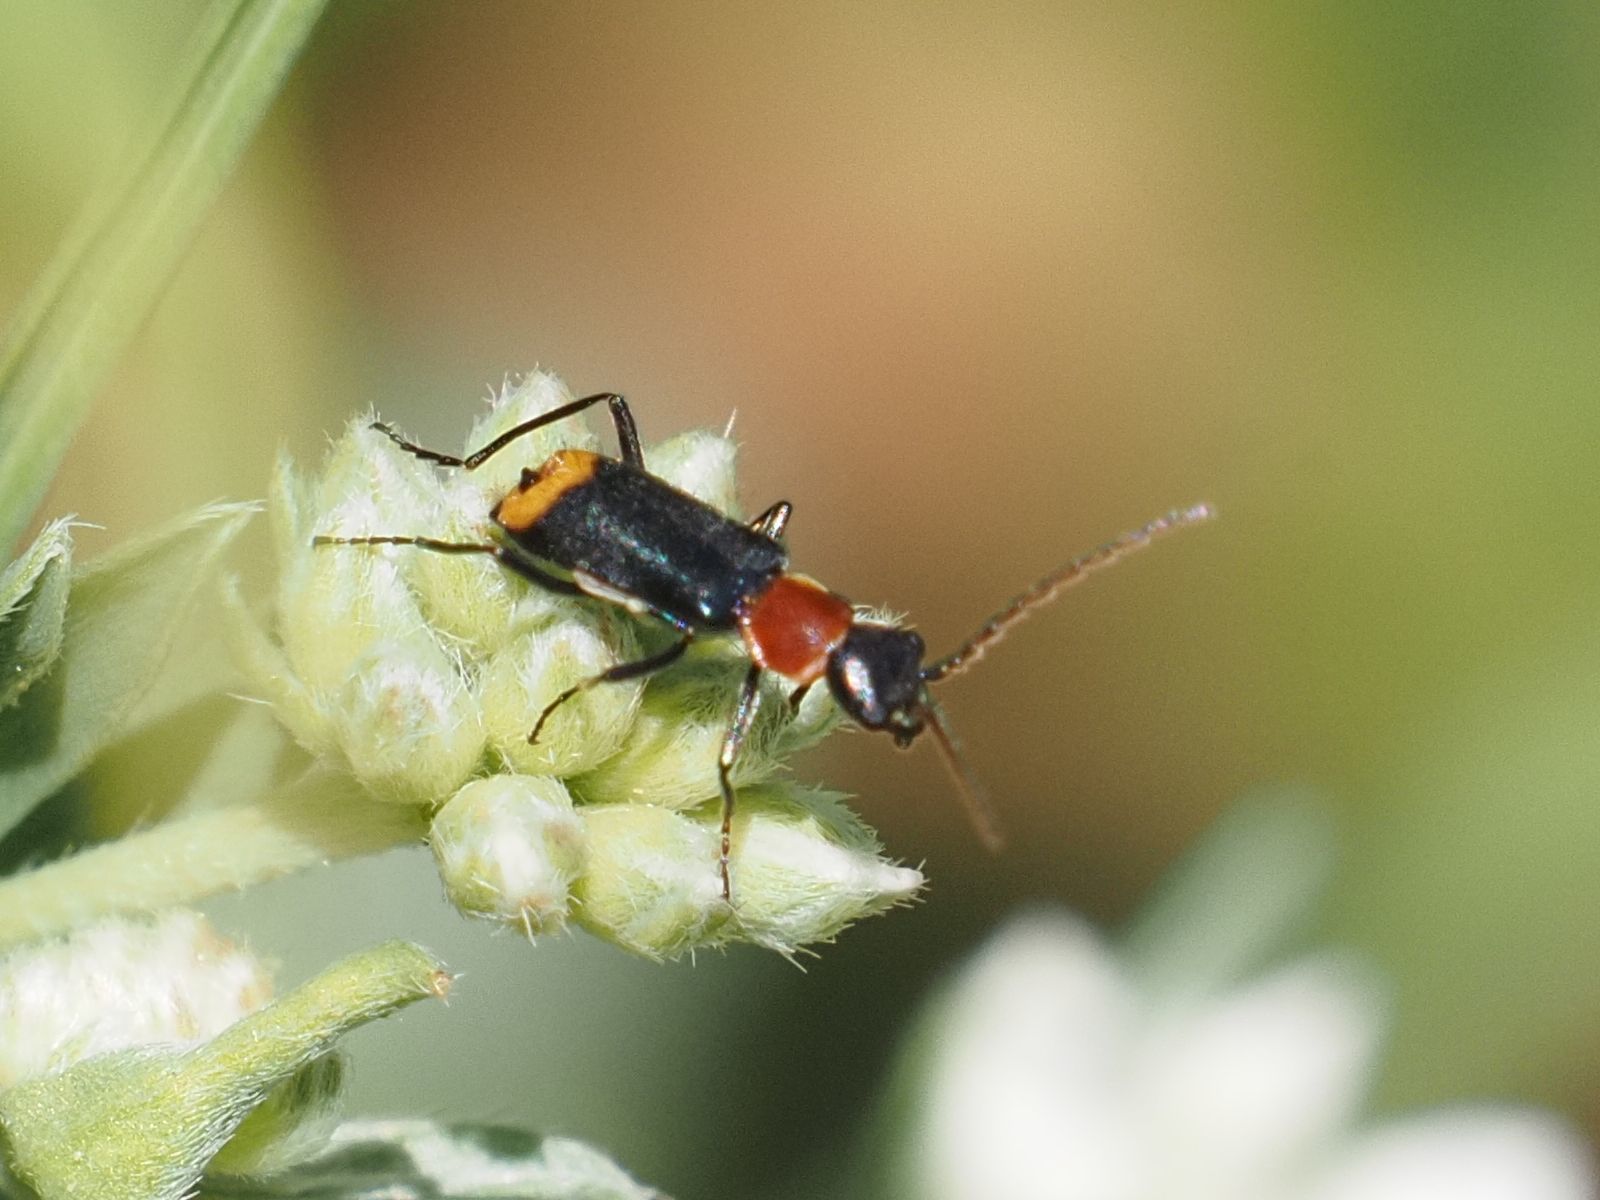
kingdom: Animalia
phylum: Arthropoda
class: Insecta
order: Coleoptera
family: Melyridae
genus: Axinotarsus
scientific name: Axinotarsus ruficollis
